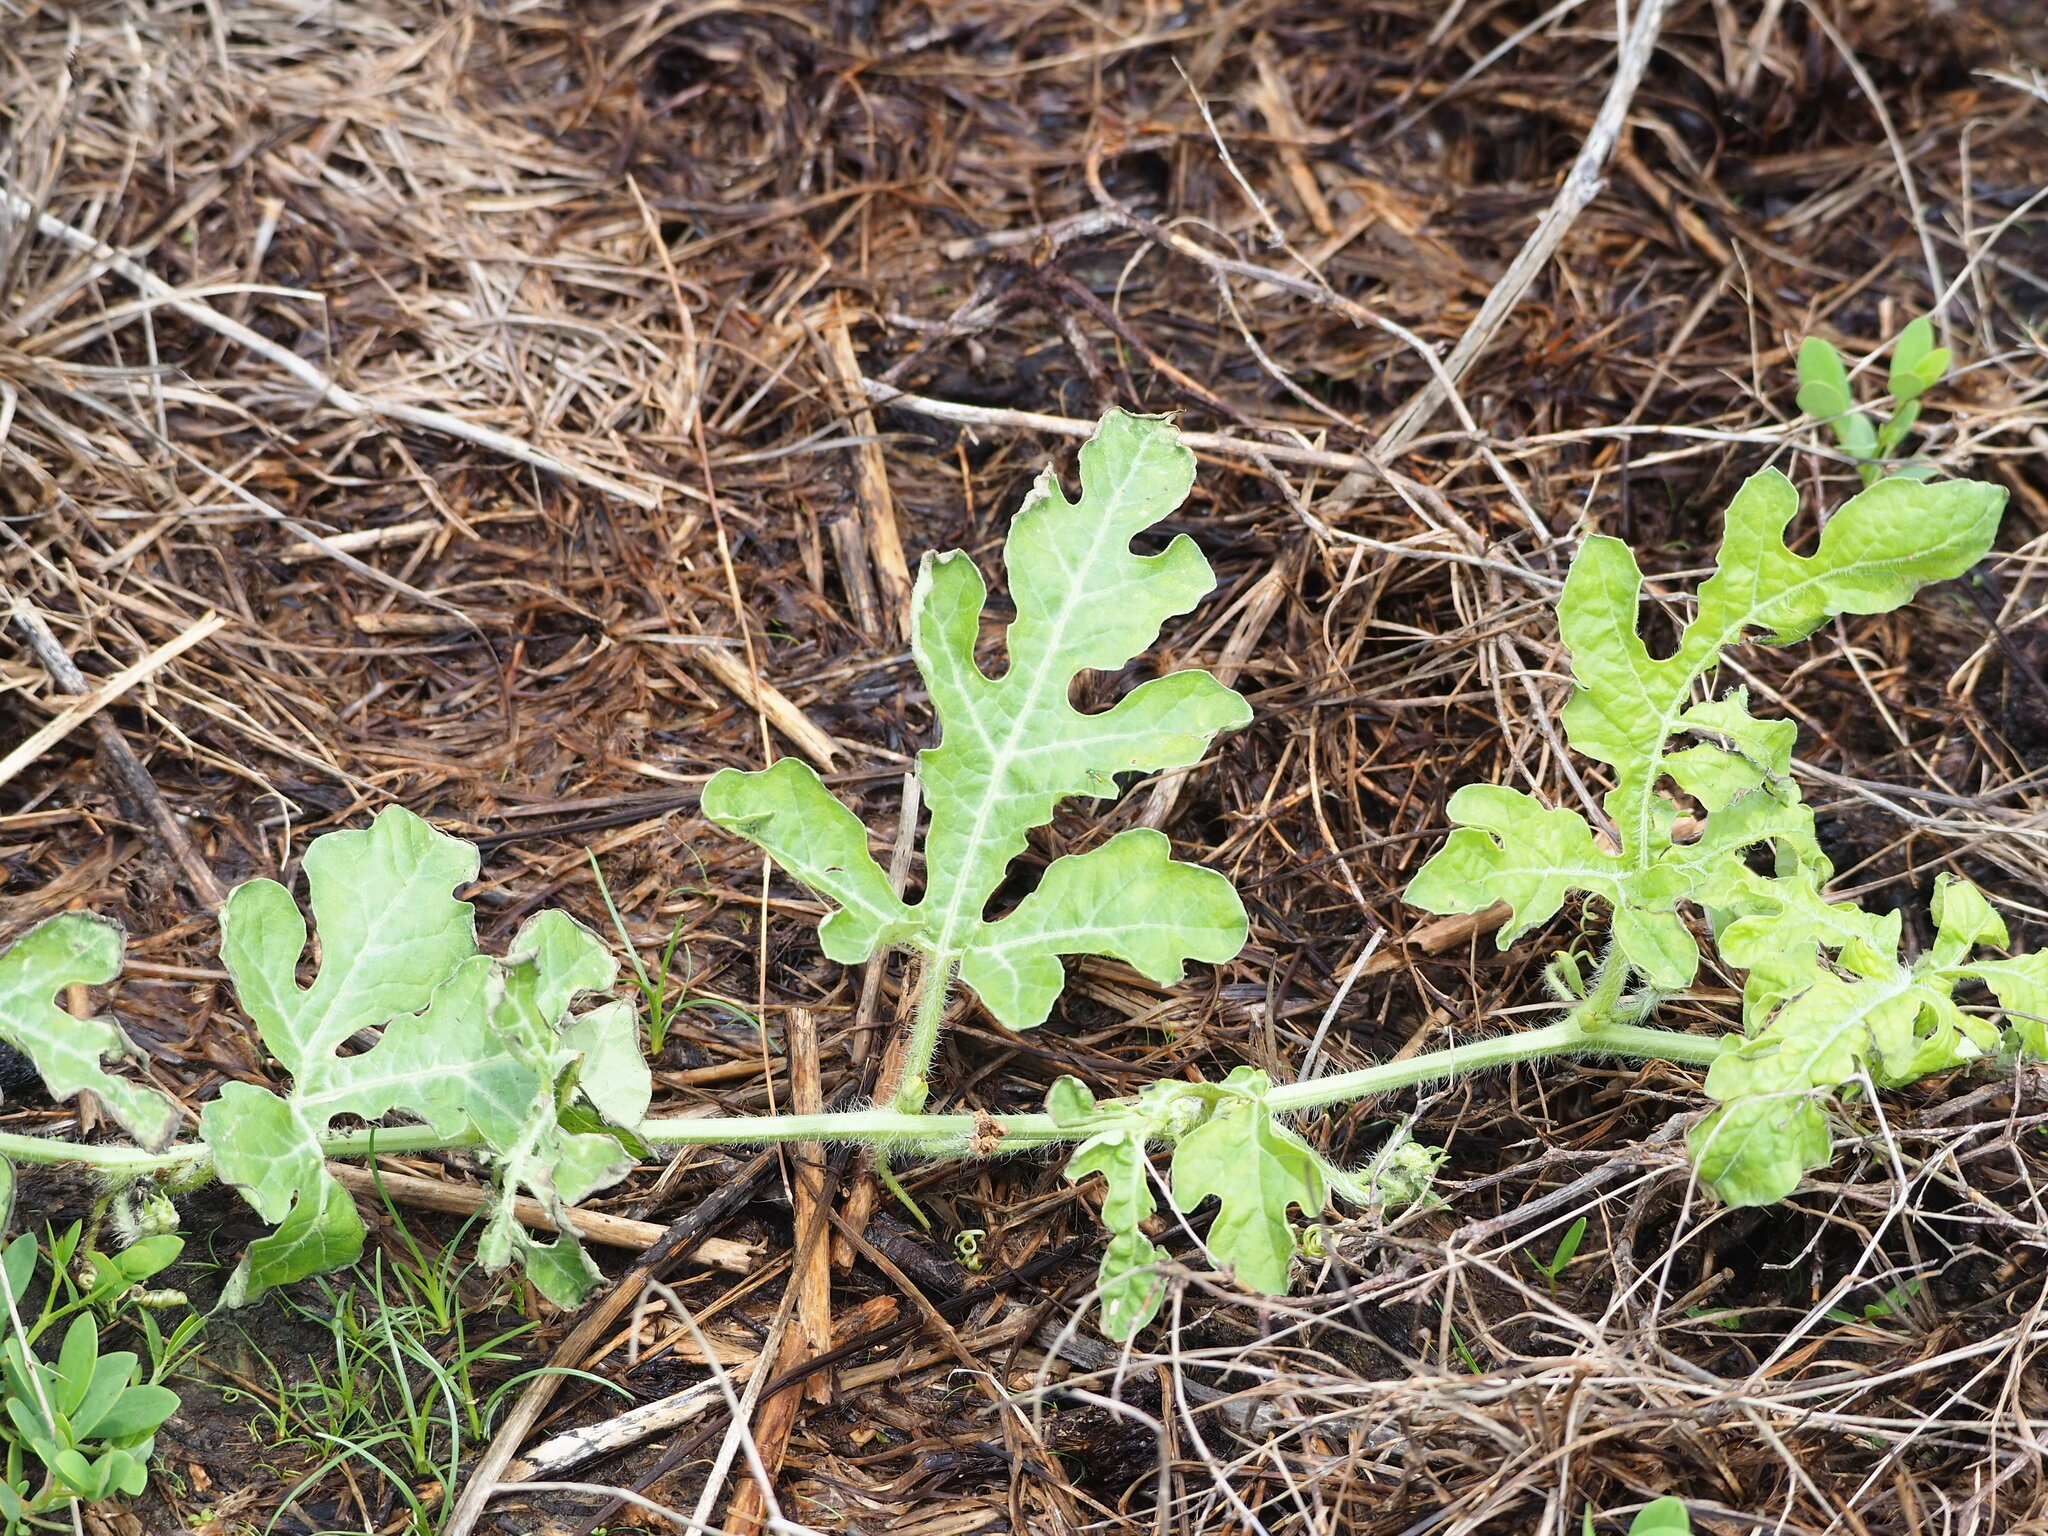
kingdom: Plantae
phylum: Tracheophyta
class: Magnoliopsida
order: Cucurbitales
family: Cucurbitaceae
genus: Citrullus
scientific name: Citrullus lanatus
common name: Watermelon
